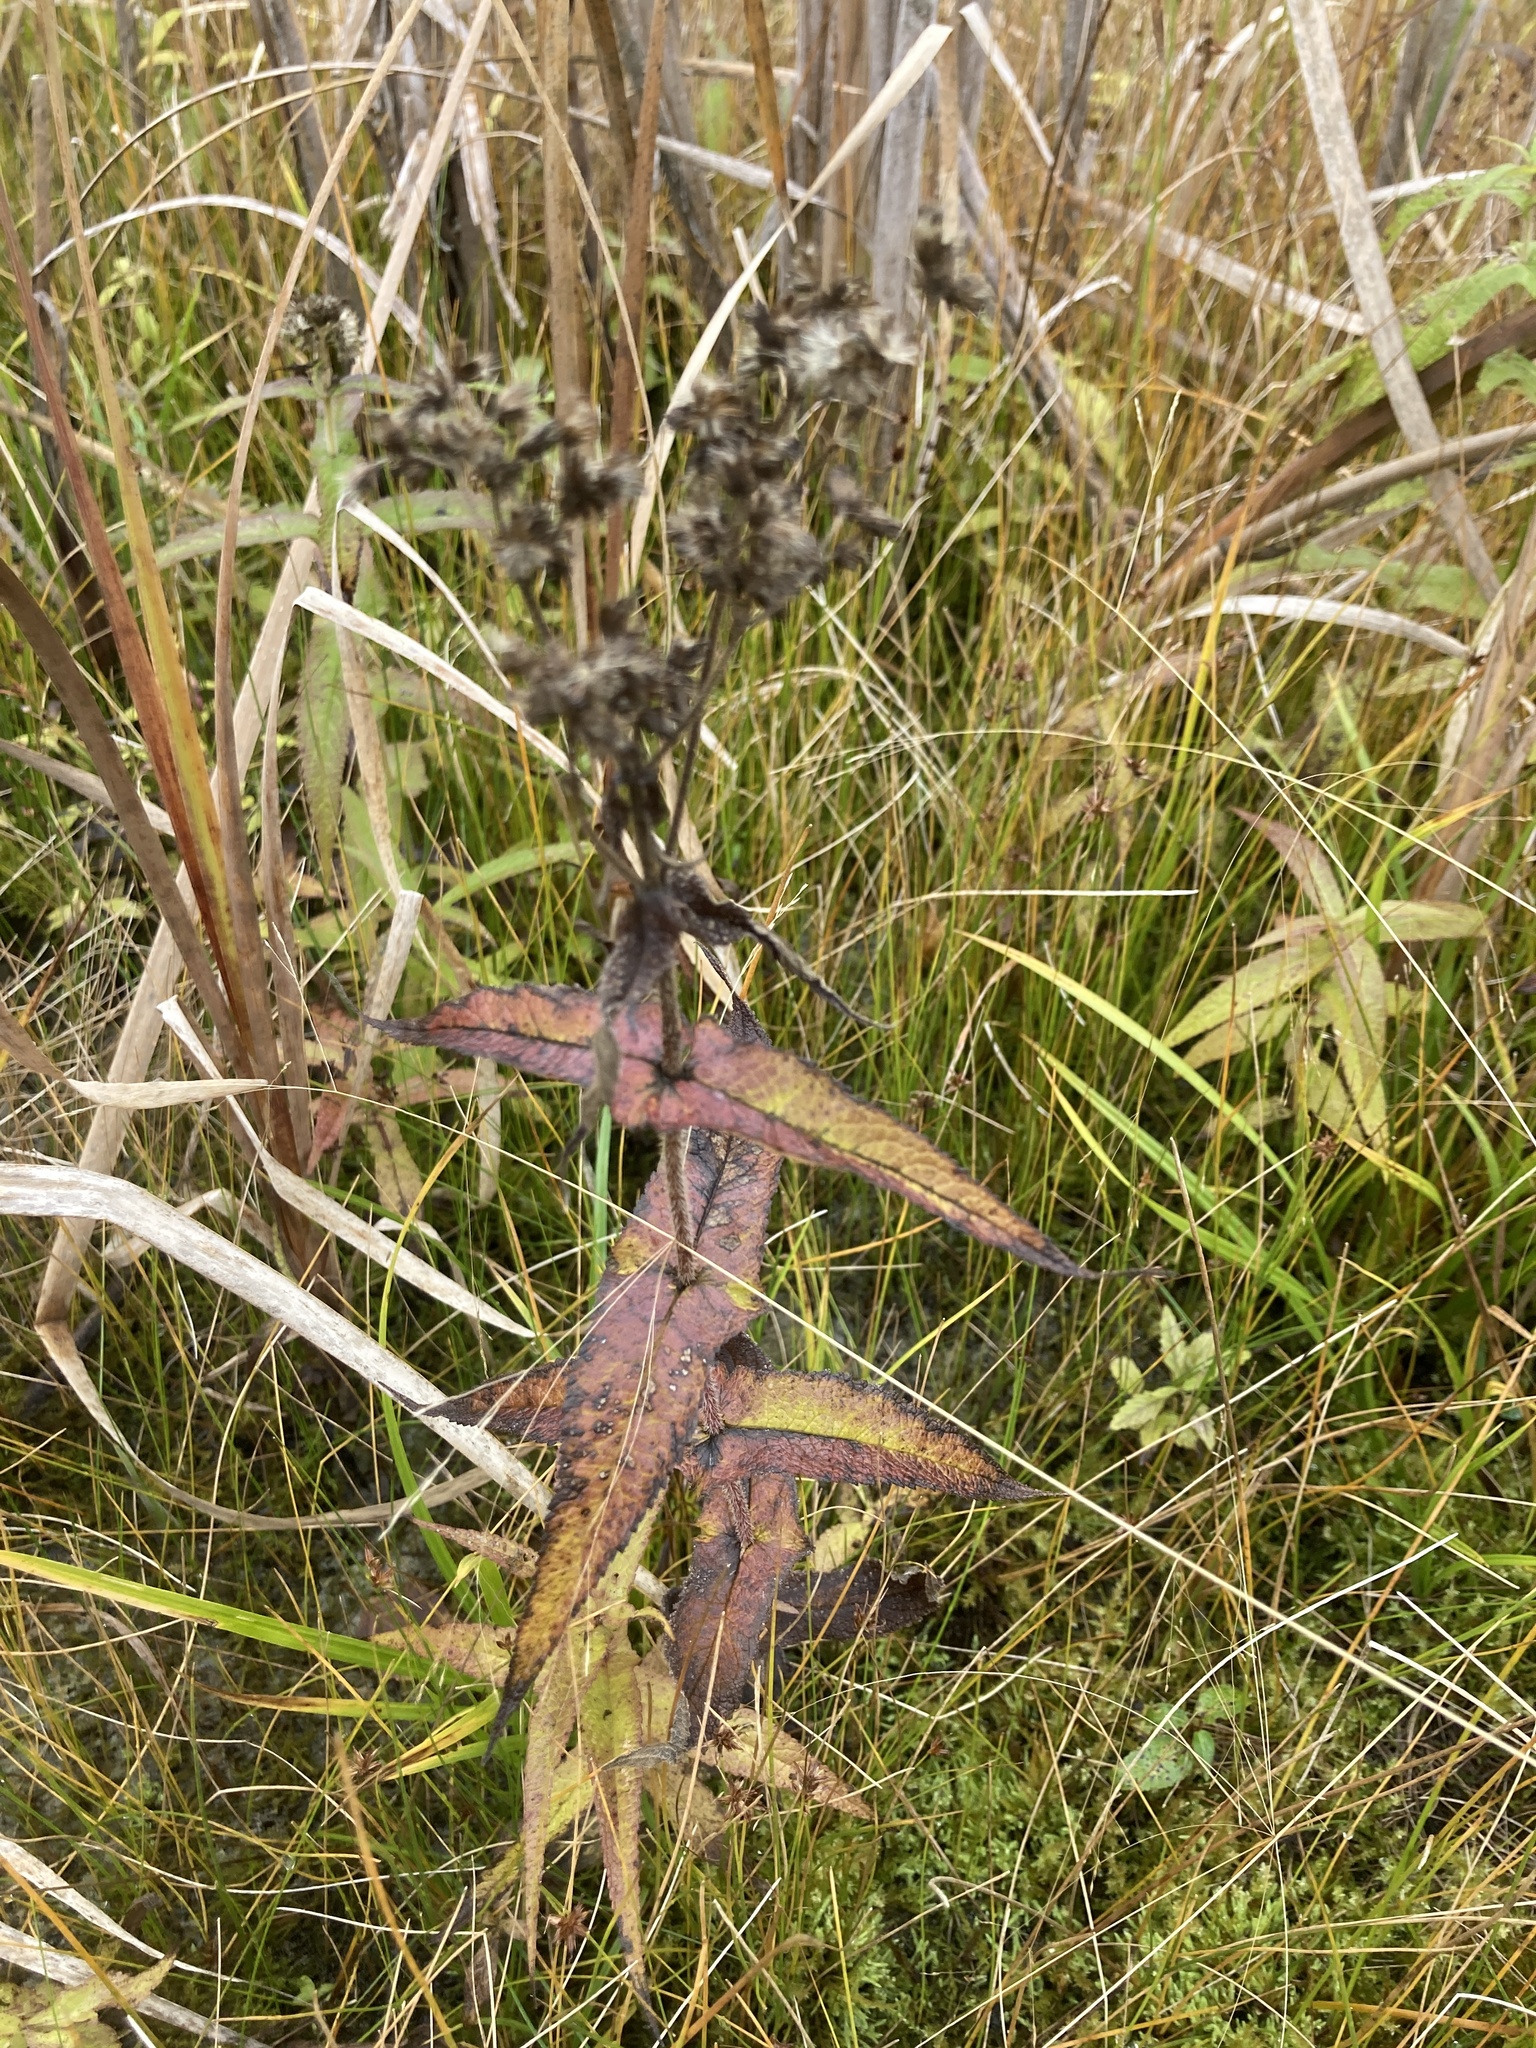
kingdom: Plantae
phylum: Tracheophyta
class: Magnoliopsida
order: Asterales
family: Asteraceae
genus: Eupatorium
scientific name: Eupatorium perfoliatum
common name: Boneset
